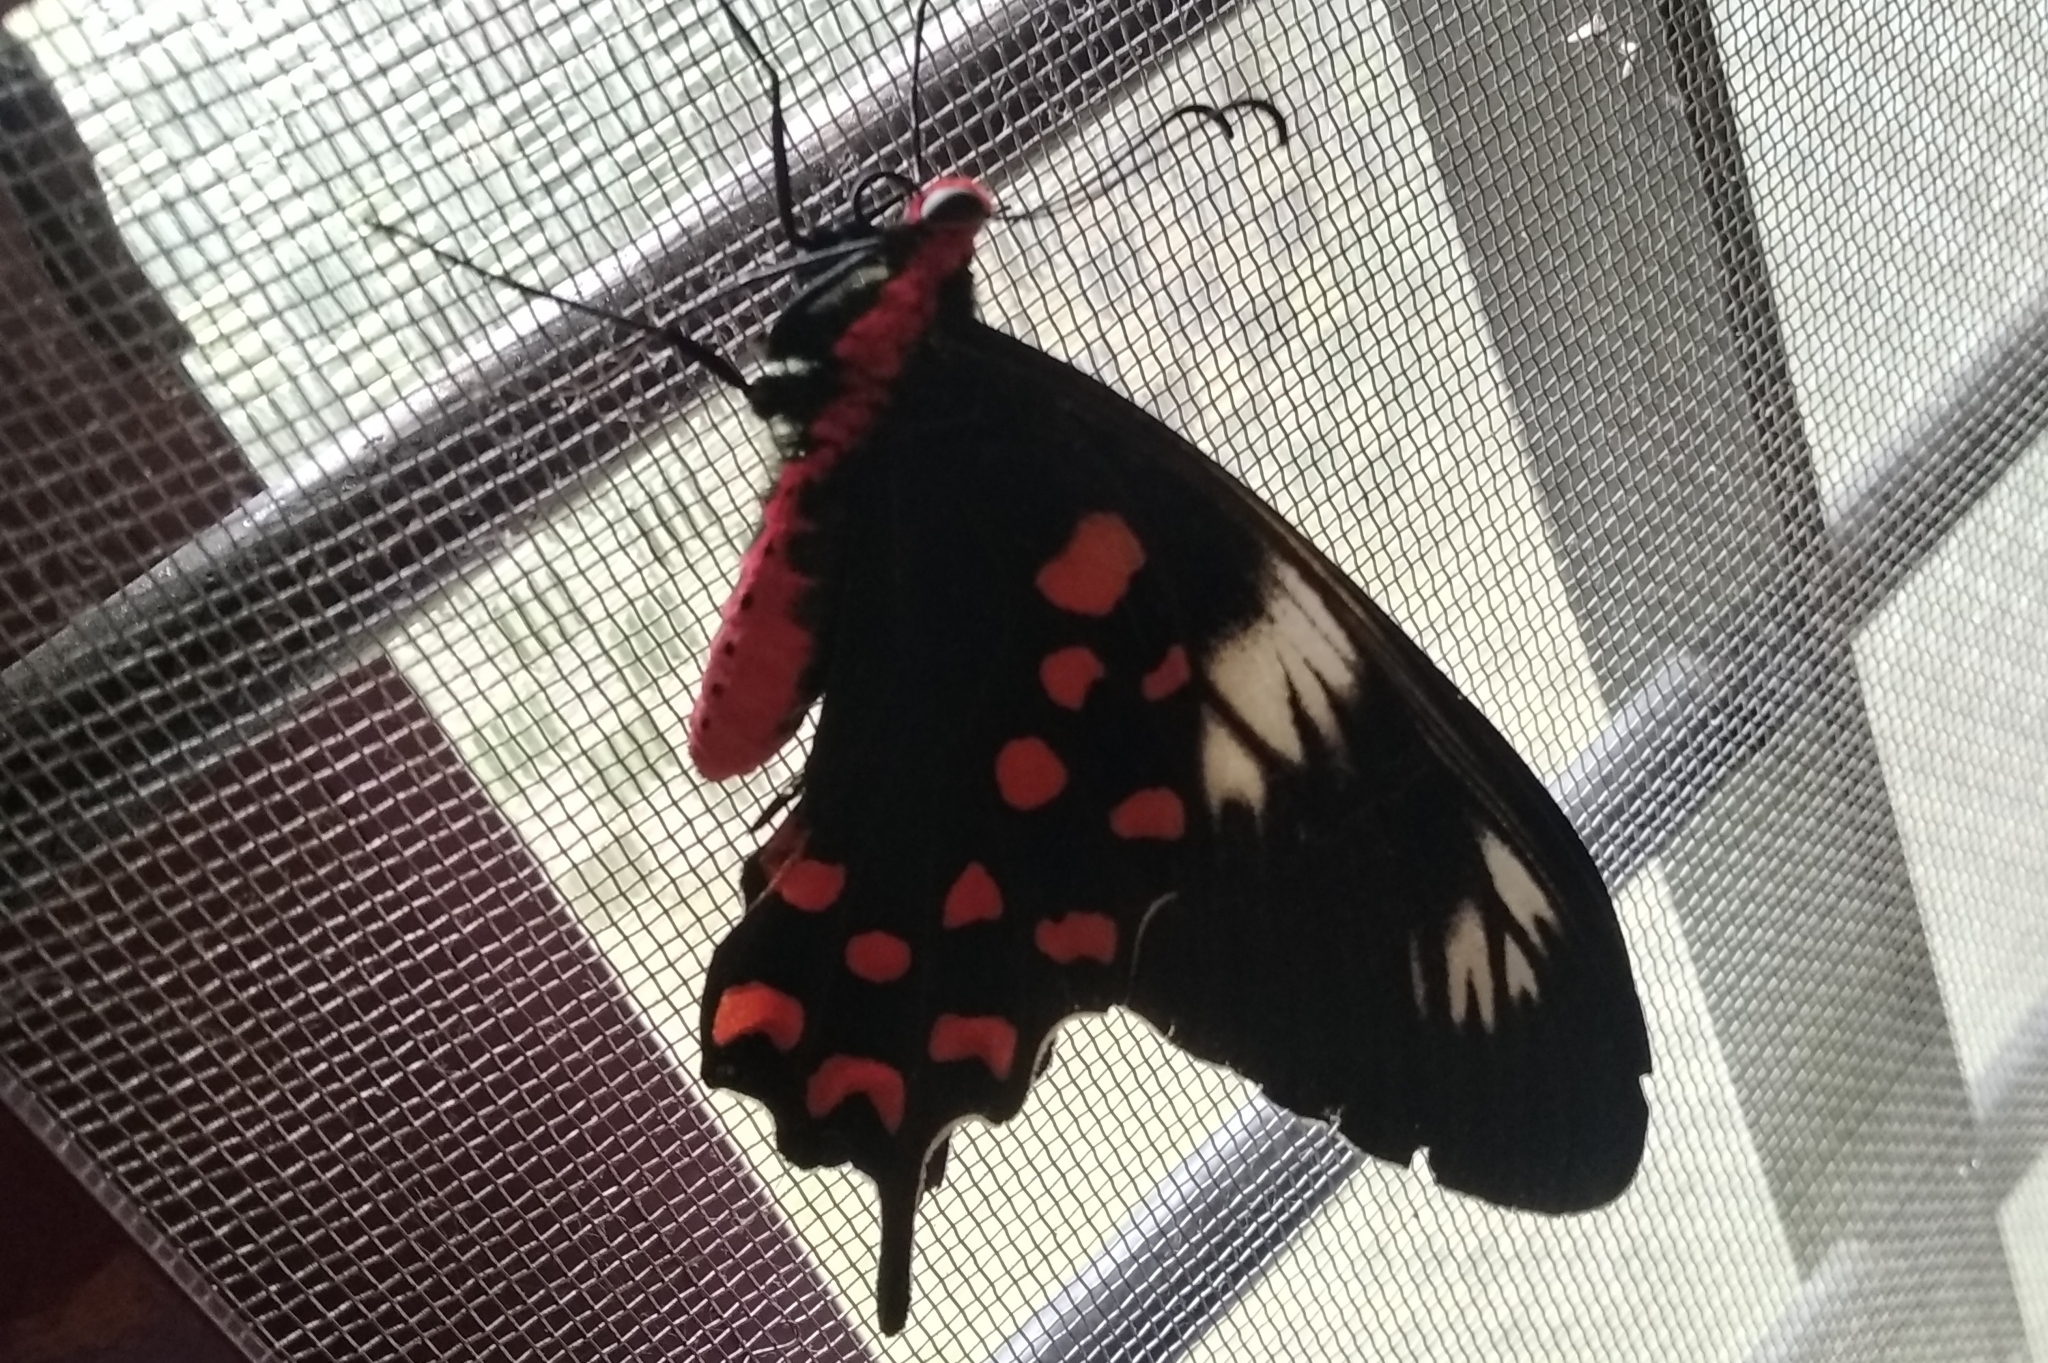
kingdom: Animalia
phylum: Arthropoda
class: Insecta
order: Lepidoptera
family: Papilionidae
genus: Pachliopta
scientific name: Pachliopta hector
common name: Crimson rose
